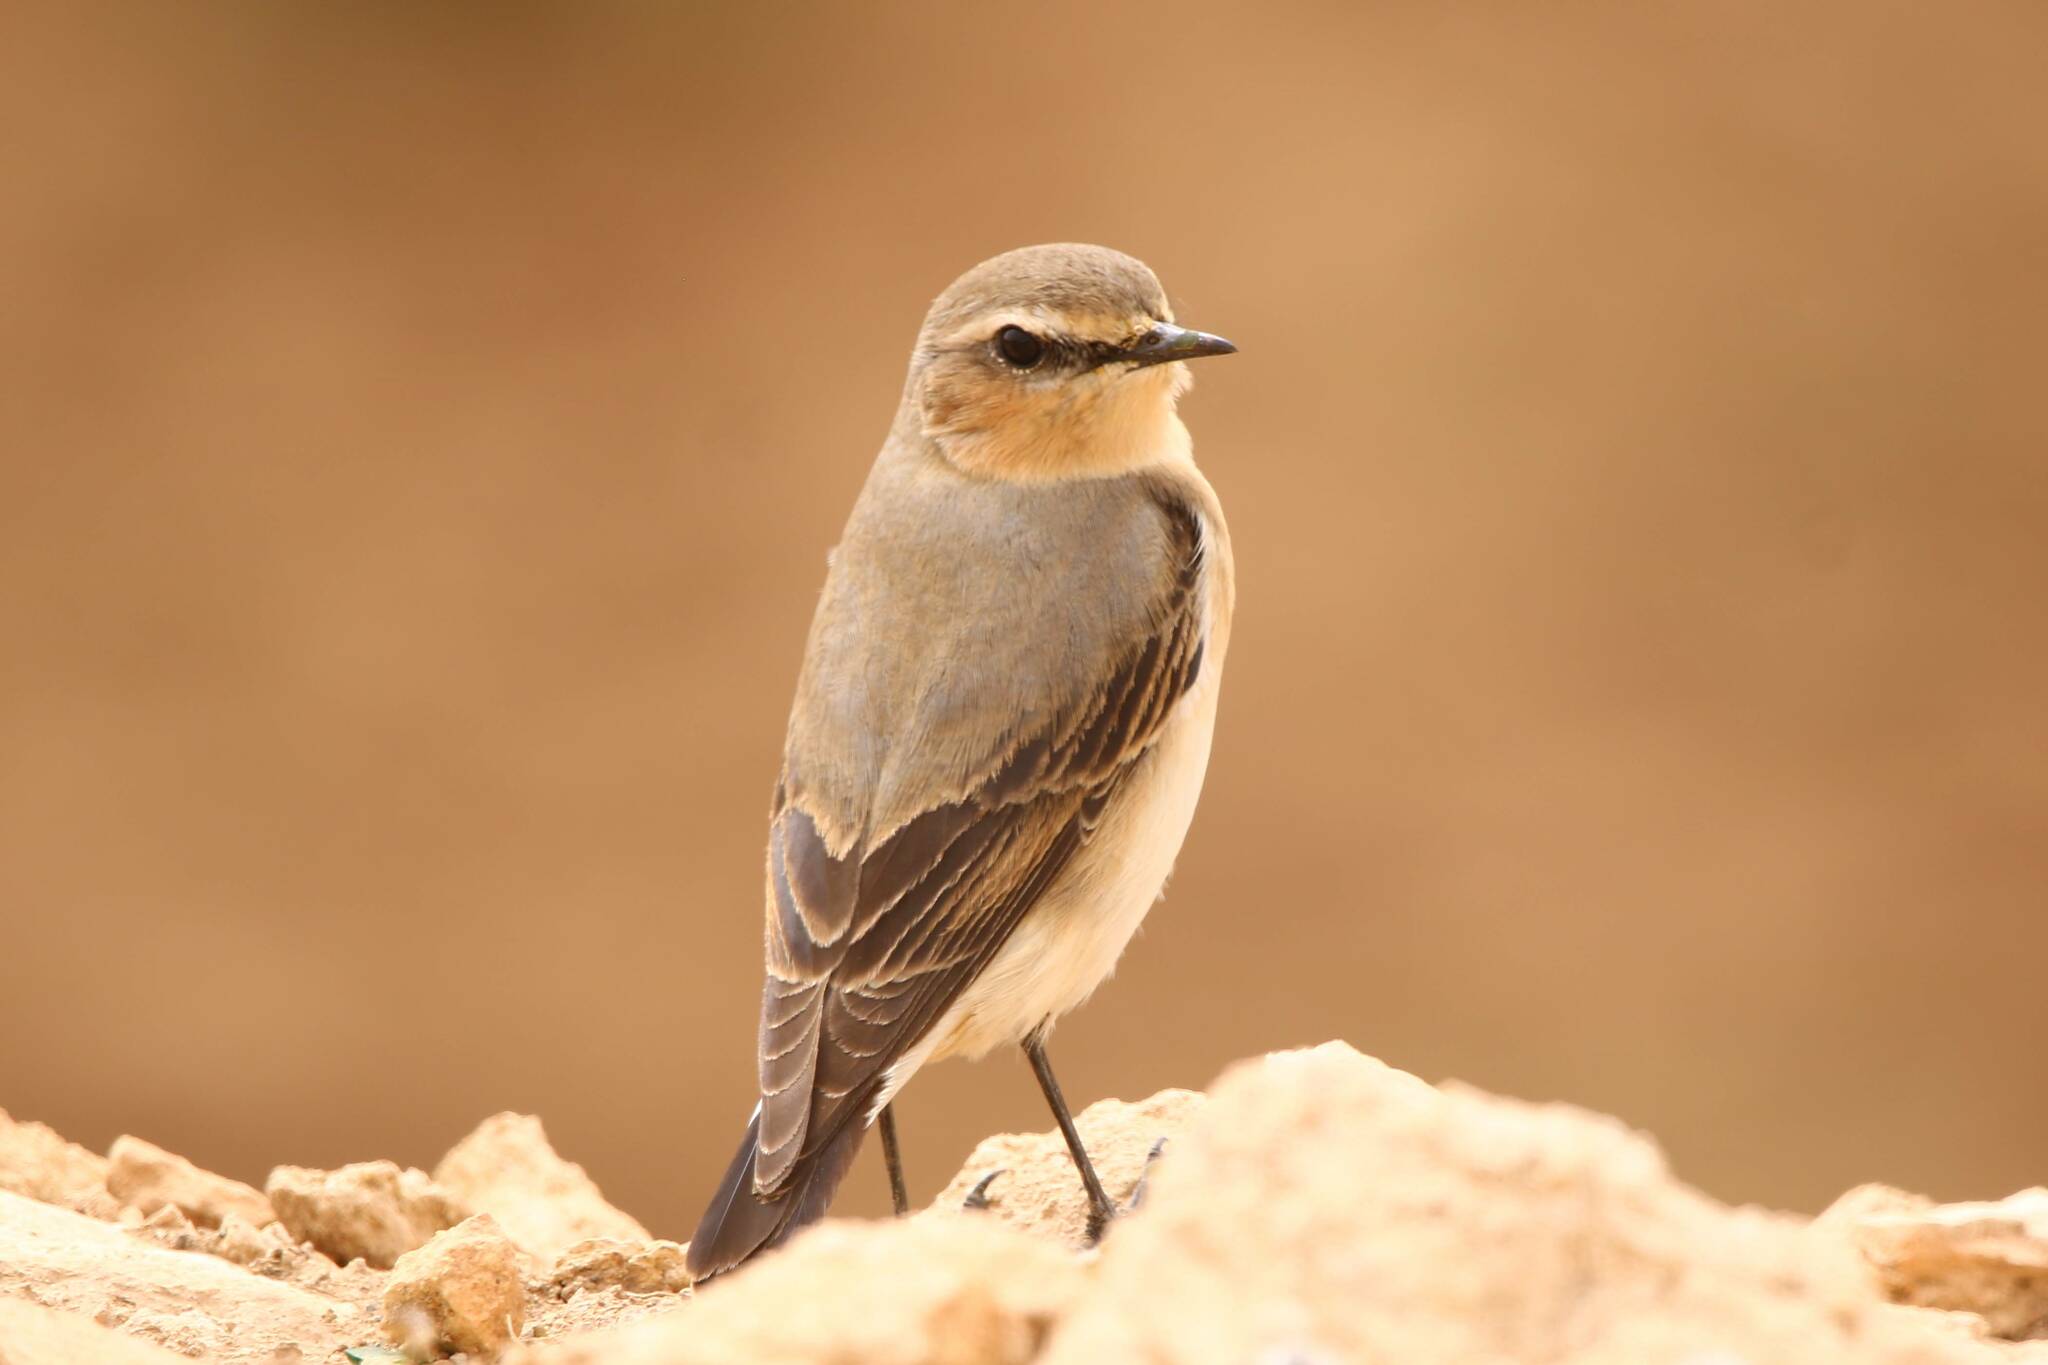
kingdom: Animalia
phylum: Chordata
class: Aves
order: Passeriformes
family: Muscicapidae
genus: Oenanthe
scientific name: Oenanthe oenanthe
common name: Northern wheatear
